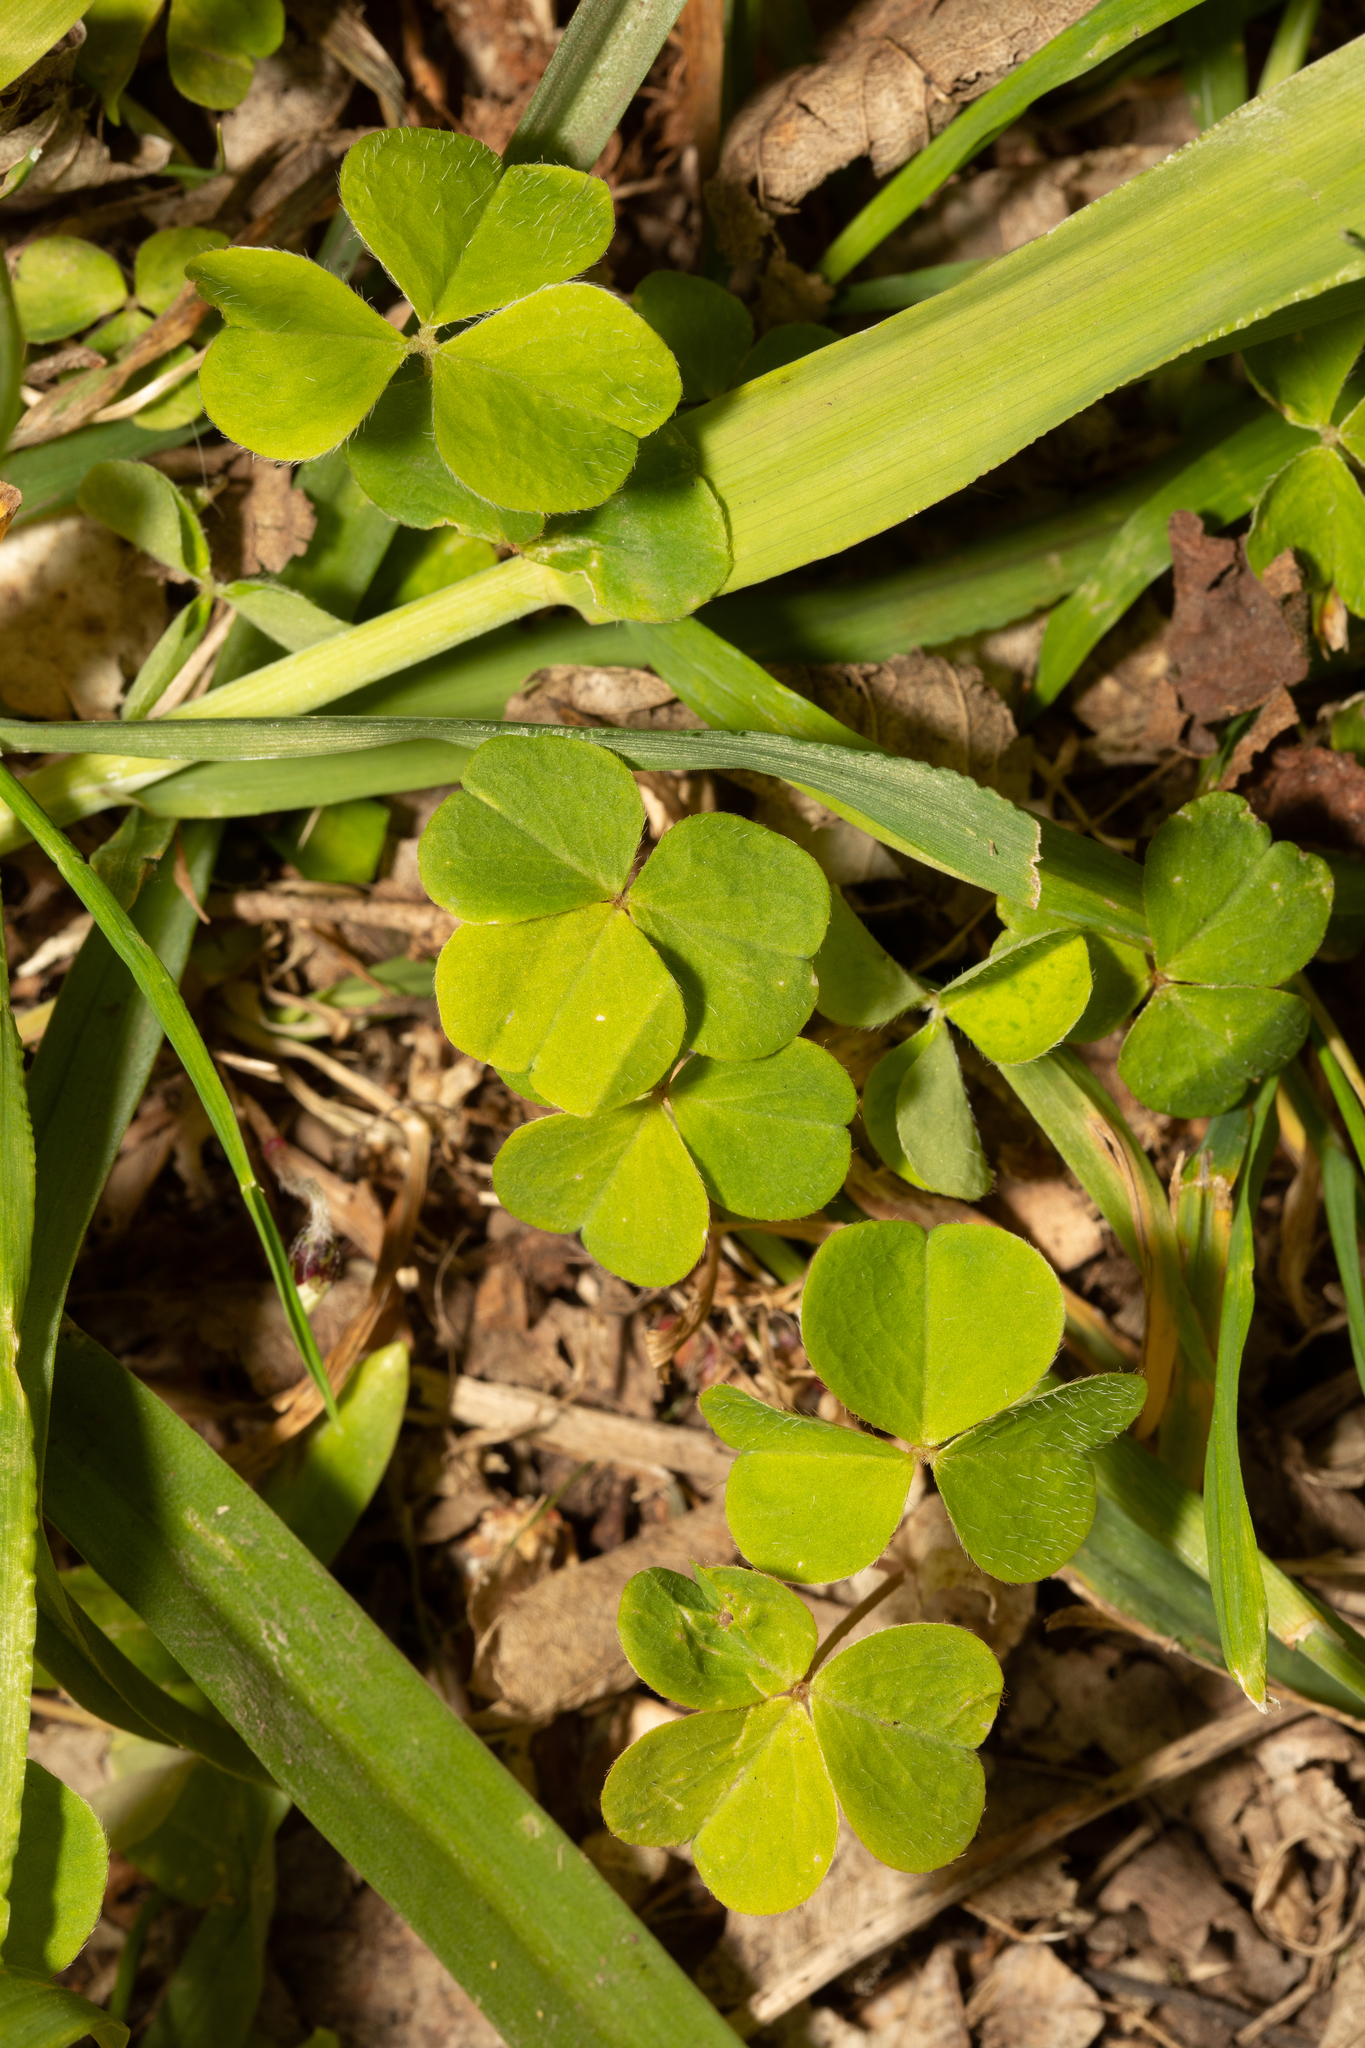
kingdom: Plantae
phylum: Tracheophyta
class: Magnoliopsida
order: Oxalidales
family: Oxalidaceae
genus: Oxalis
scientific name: Oxalis acetosella
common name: Wood-sorrel
